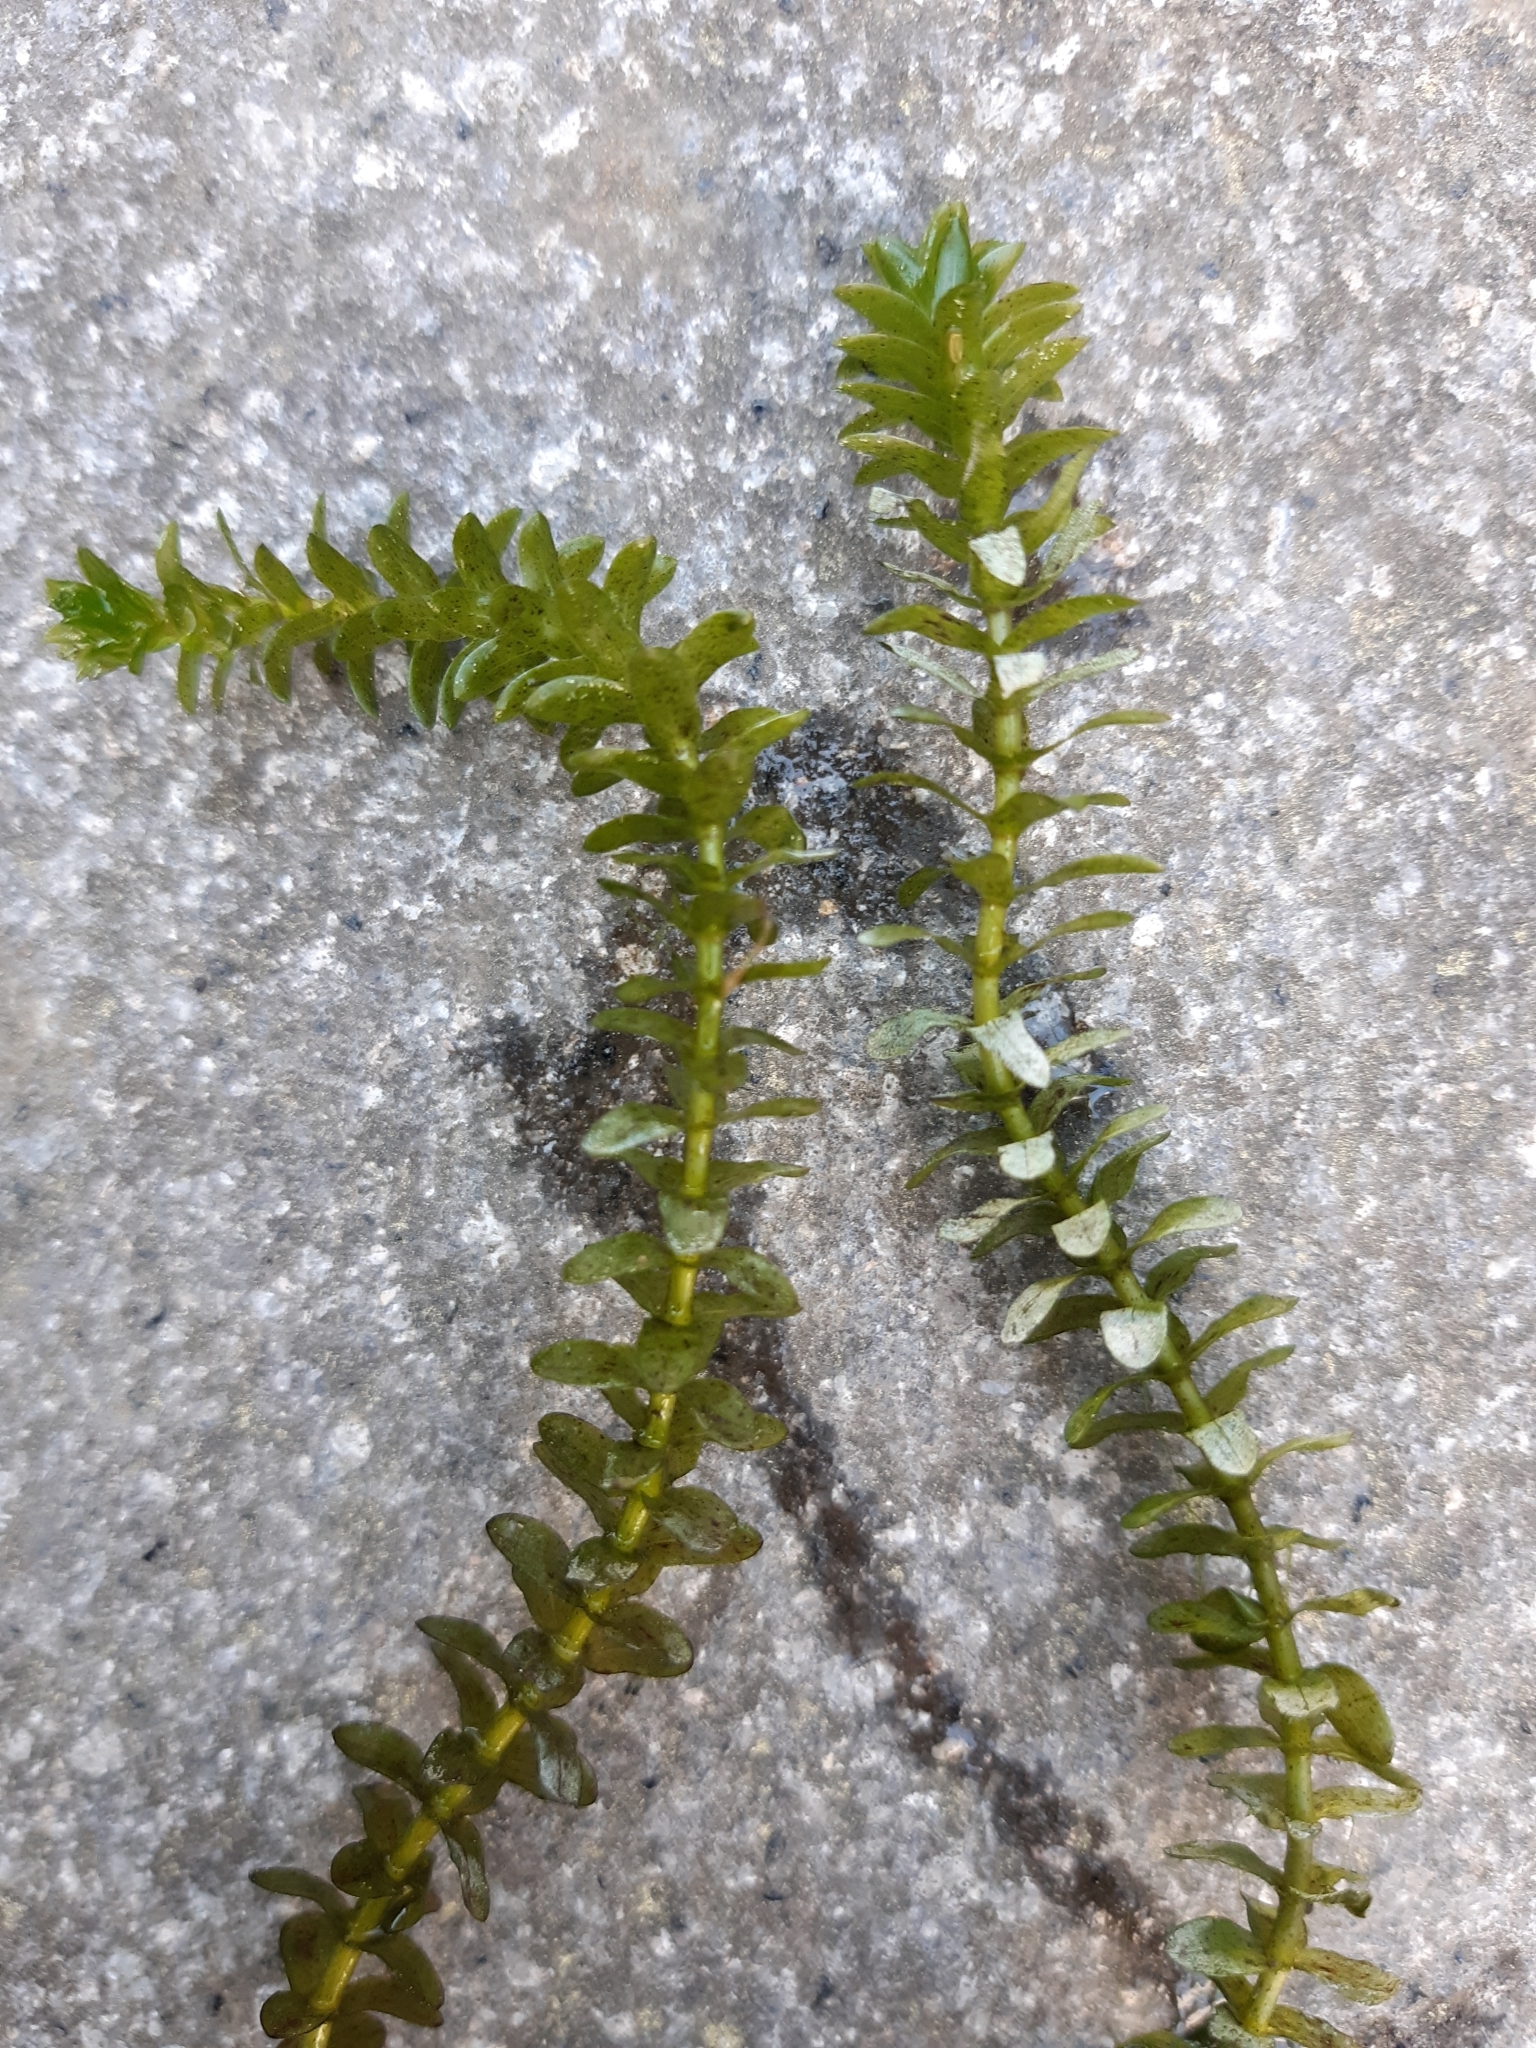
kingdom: Plantae
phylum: Tracheophyta
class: Liliopsida
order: Alismatales
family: Hydrocharitaceae
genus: Elodea
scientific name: Elodea canadensis
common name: Canadian waterweed
